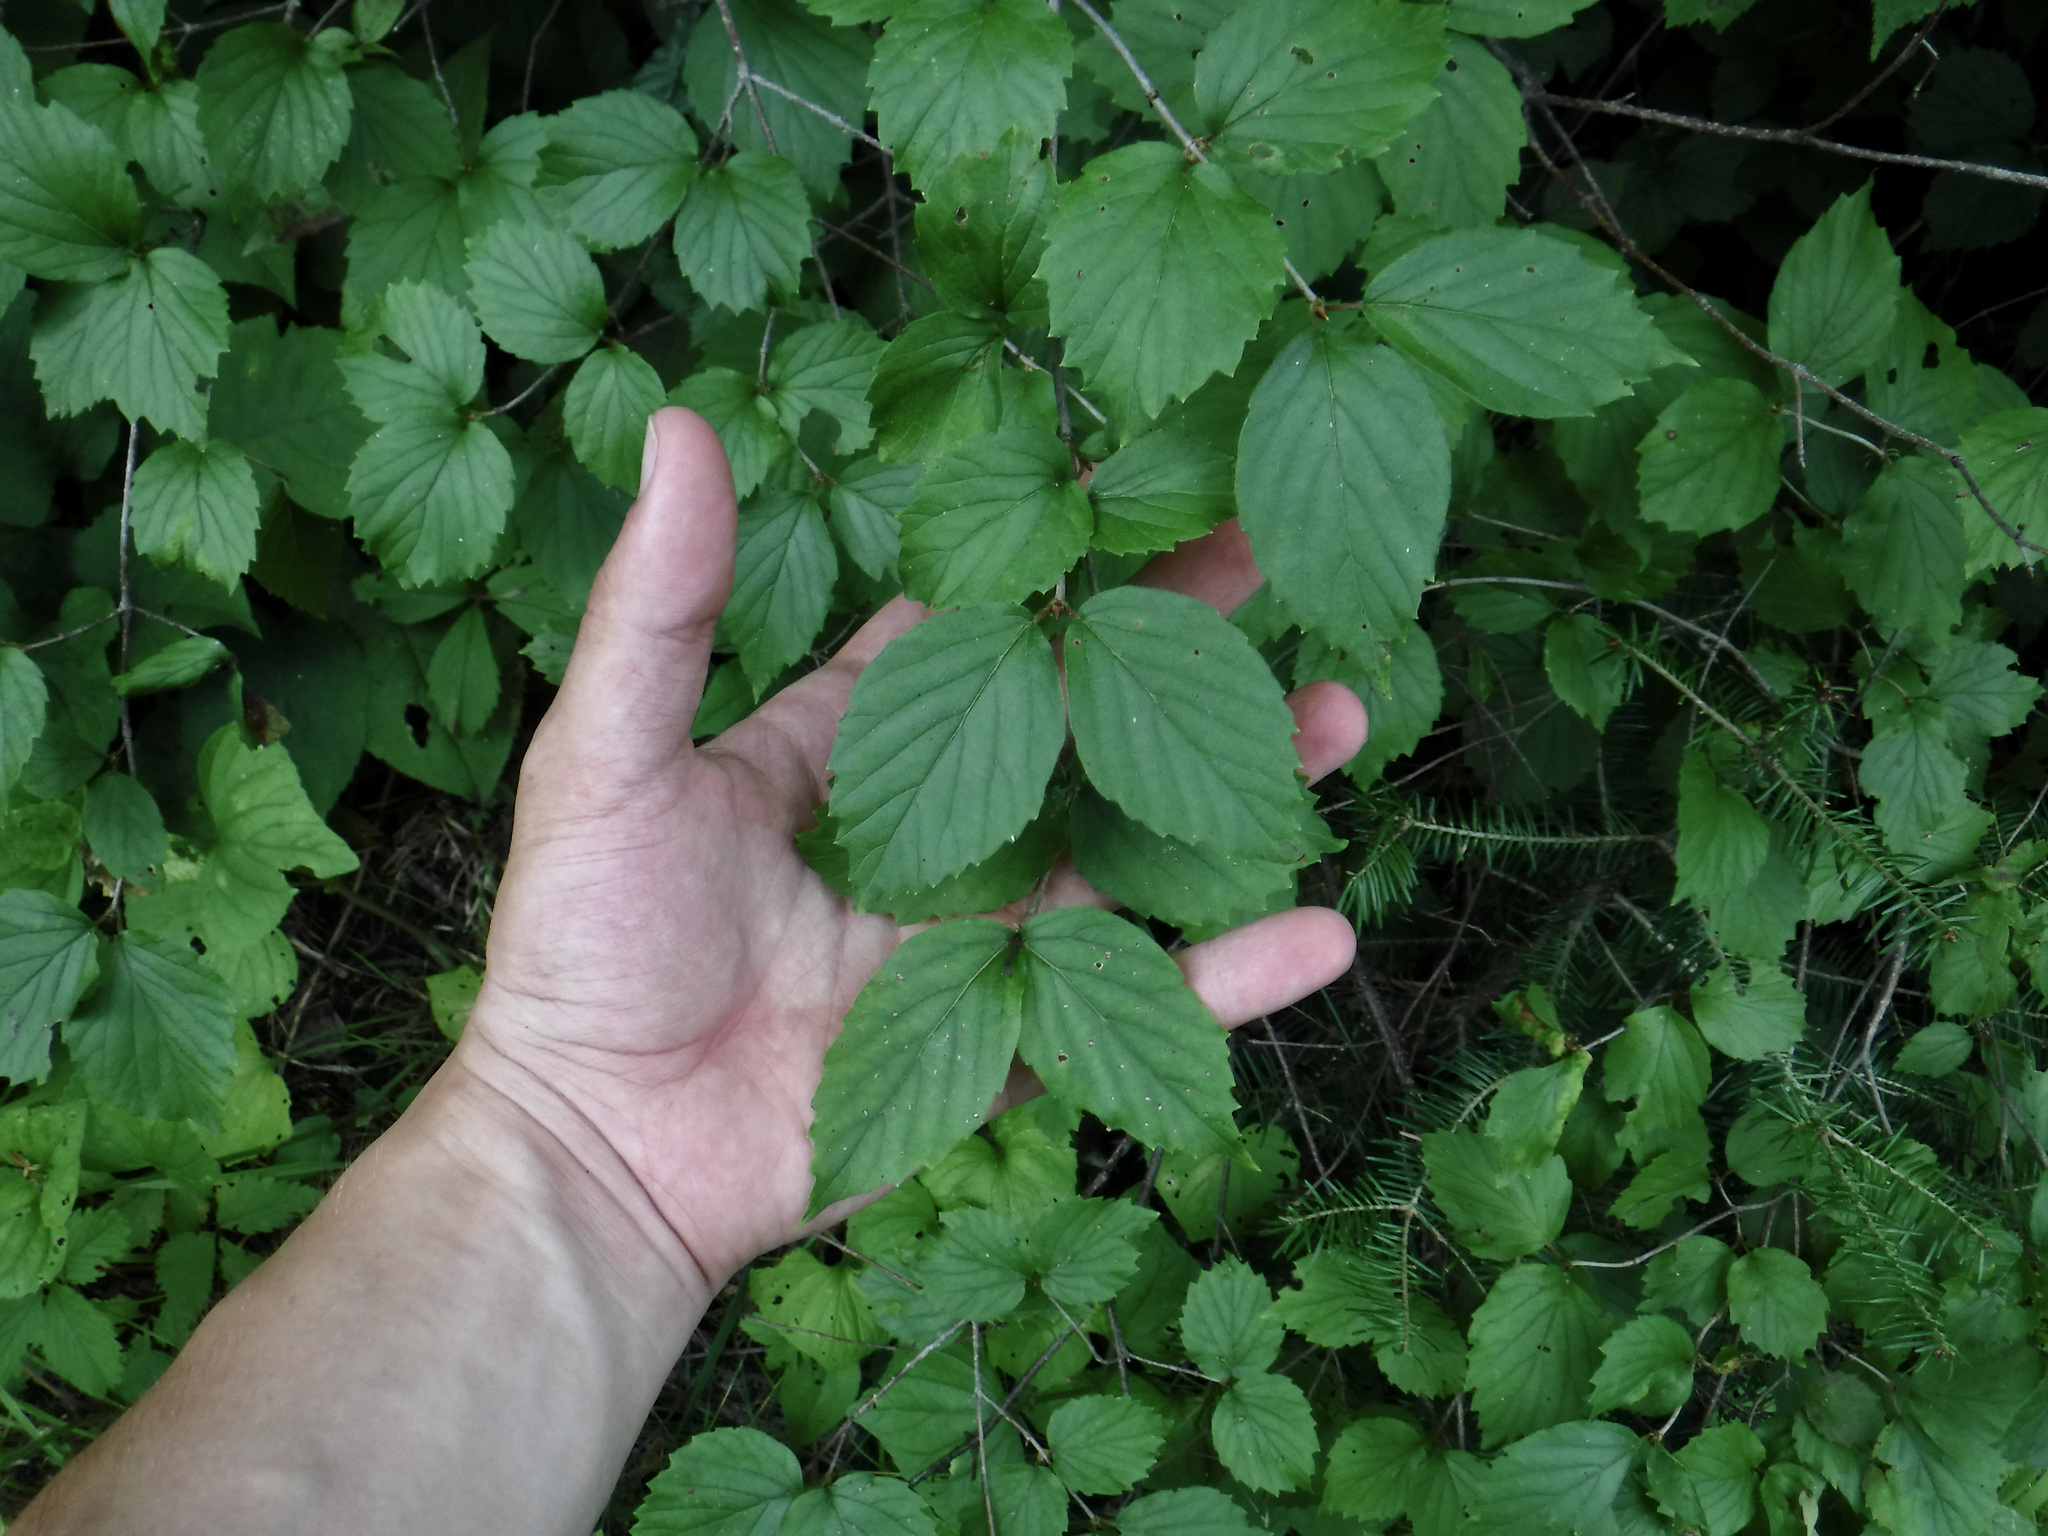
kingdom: Plantae
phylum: Tracheophyta
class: Magnoliopsida
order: Dipsacales
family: Viburnaceae
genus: Viburnum
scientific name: Viburnum rafinesqueanum
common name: Downy arrow-wood
